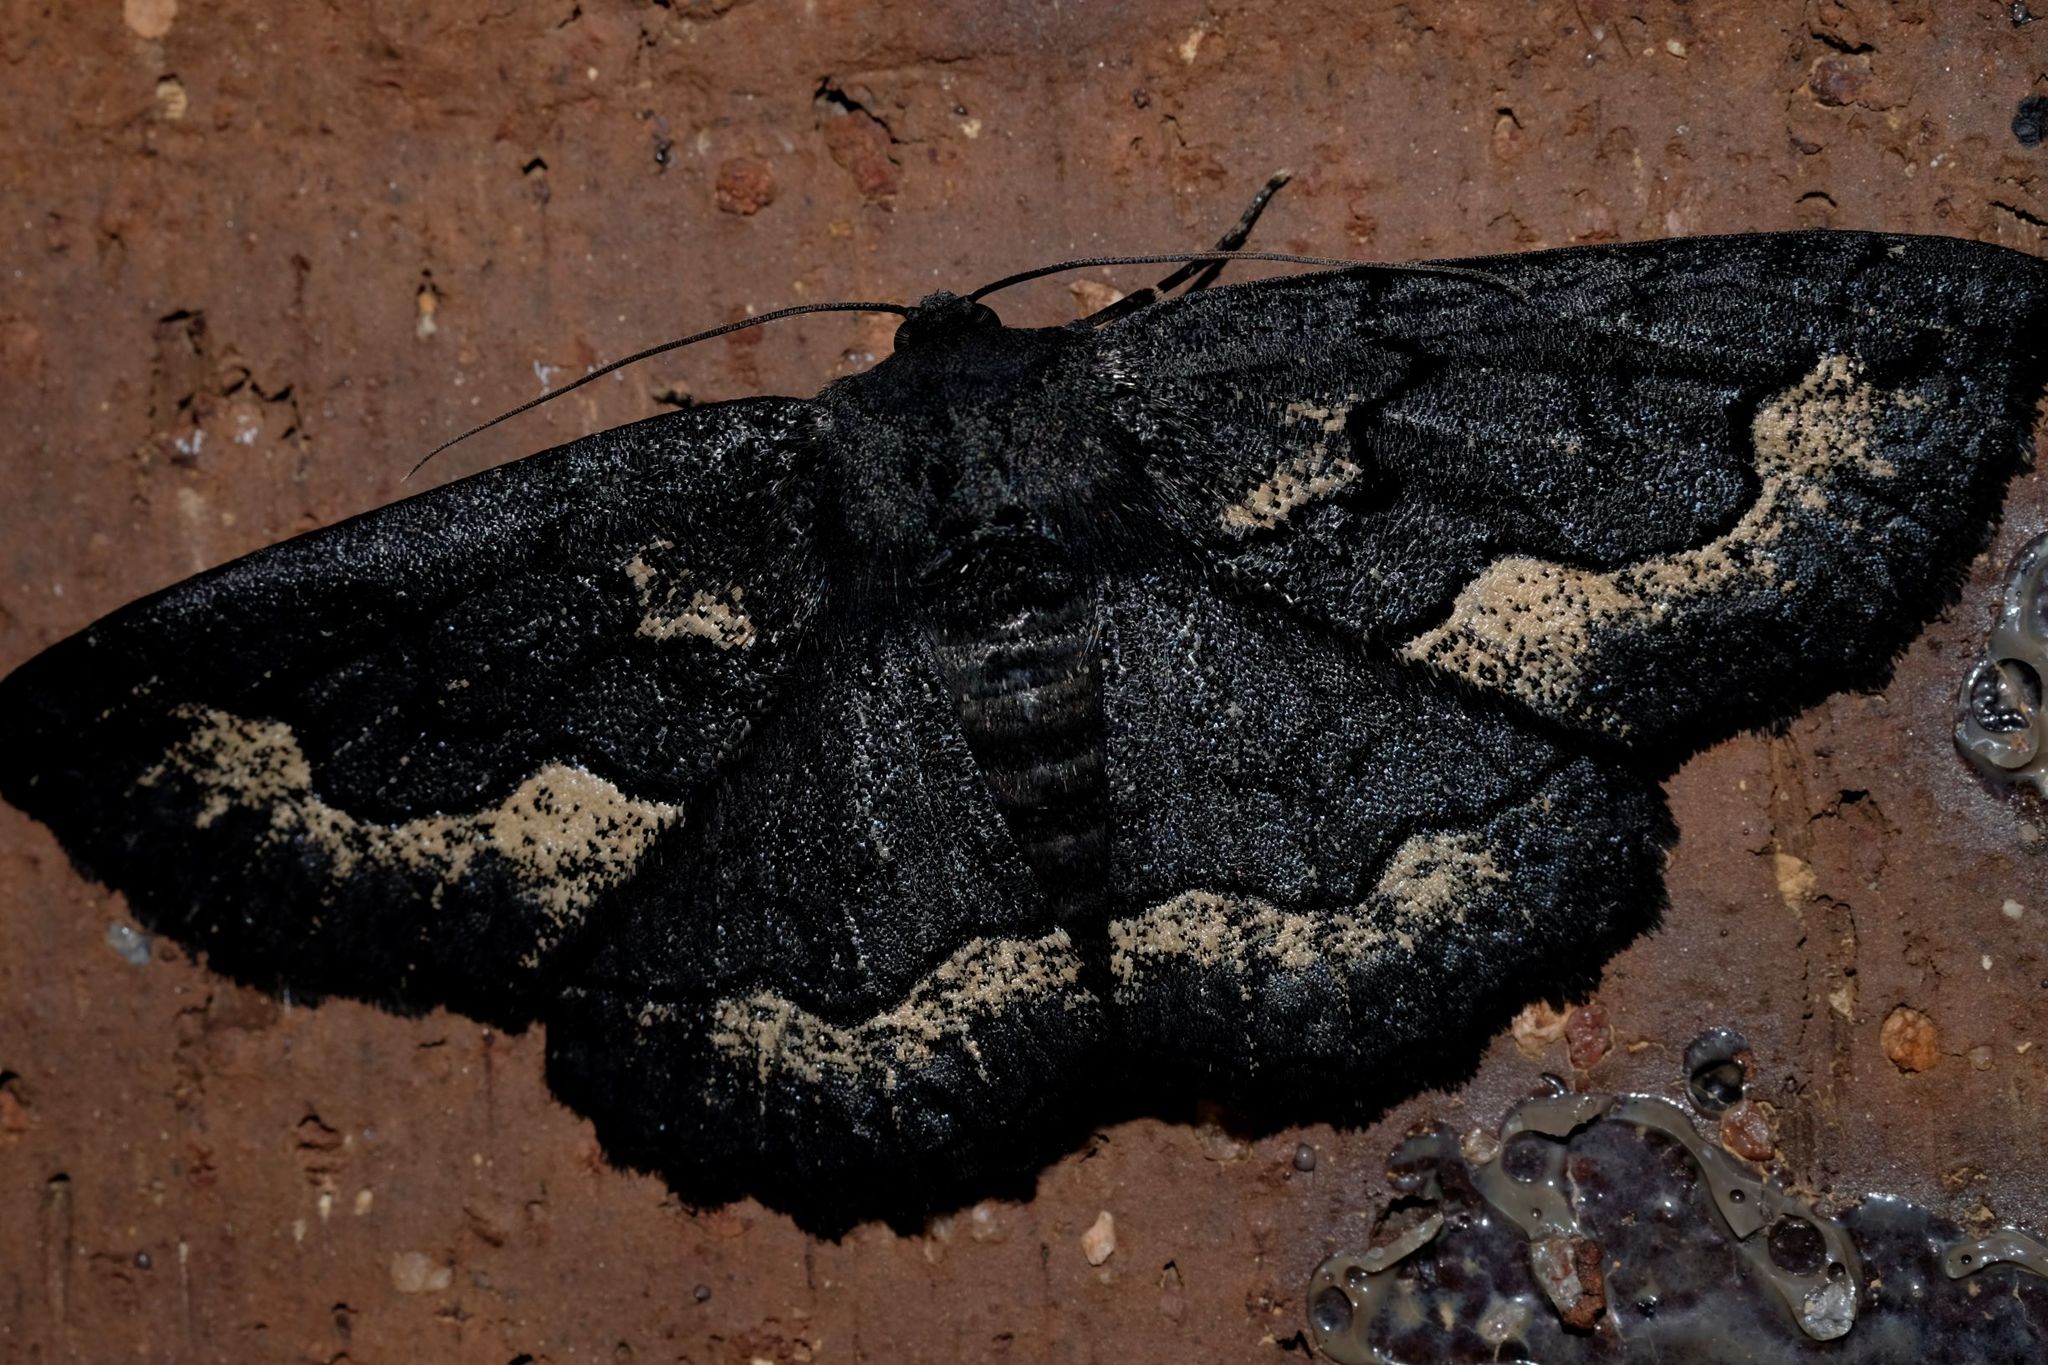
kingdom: Animalia
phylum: Arthropoda
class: Insecta
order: Lepidoptera
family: Geometridae
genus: Melanodes
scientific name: Melanodes anthracitaria
